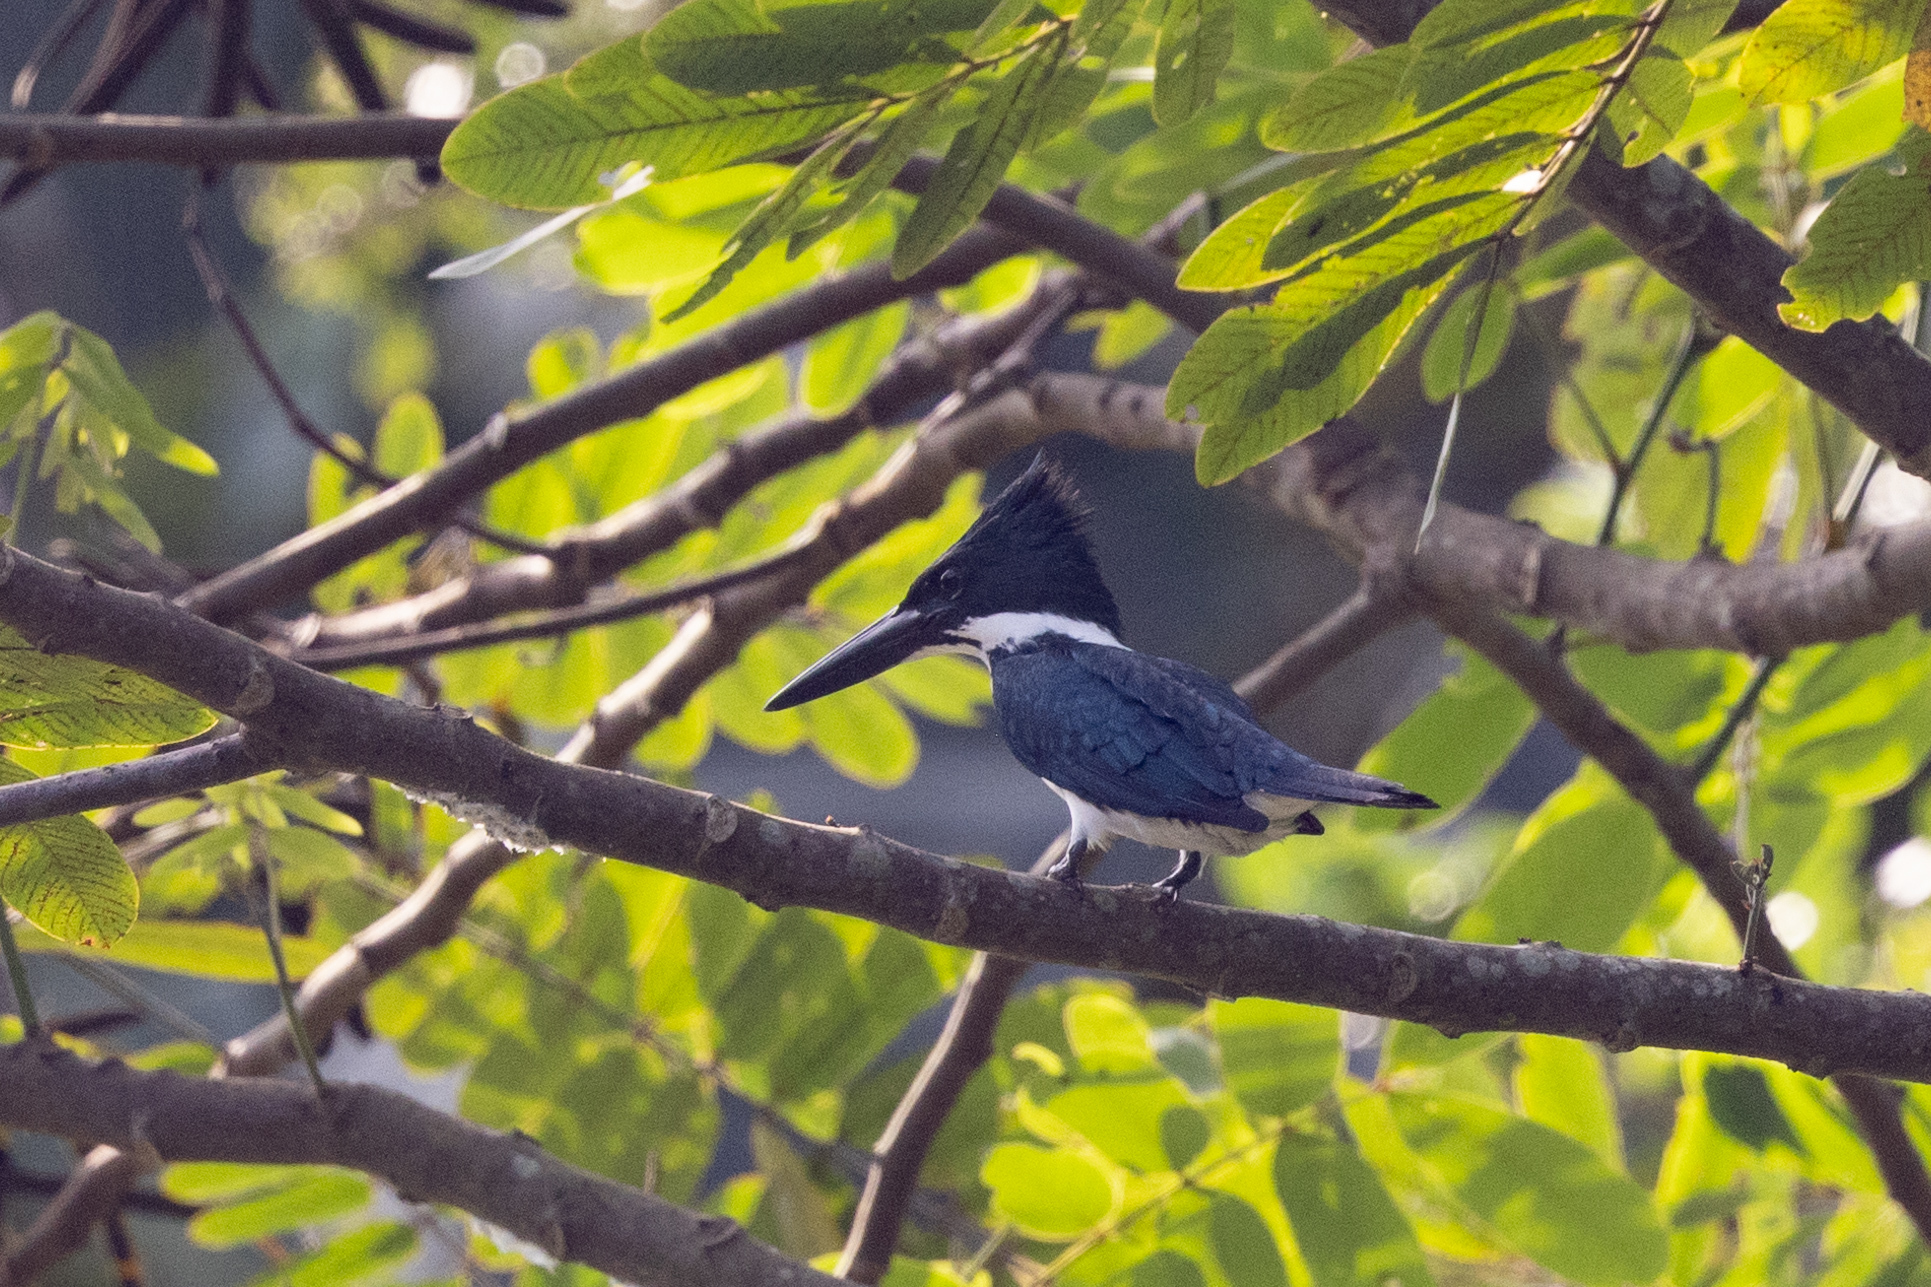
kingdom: Animalia
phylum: Chordata
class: Aves
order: Coraciiformes
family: Alcedinidae
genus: Chloroceryle
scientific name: Chloroceryle amazona
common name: Amazon kingfisher
